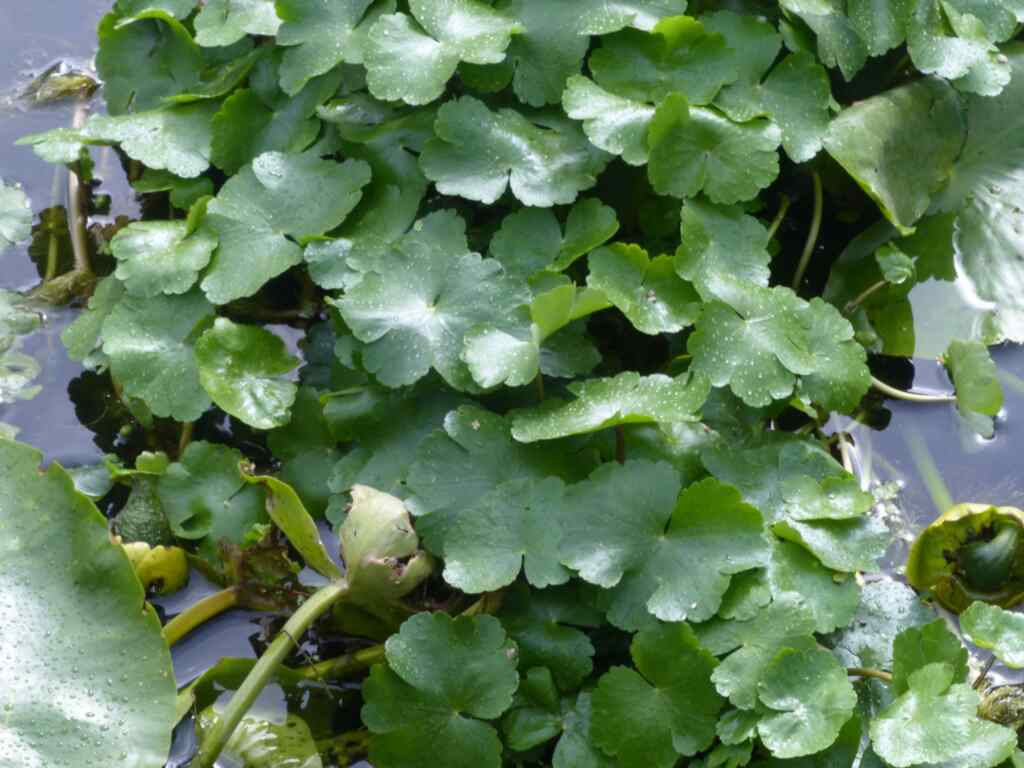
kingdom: Plantae
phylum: Tracheophyta
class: Magnoliopsida
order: Apiales
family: Araliaceae
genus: Hydrocotyle
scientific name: Hydrocotyle ranunculoides
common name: Floating pennywort
